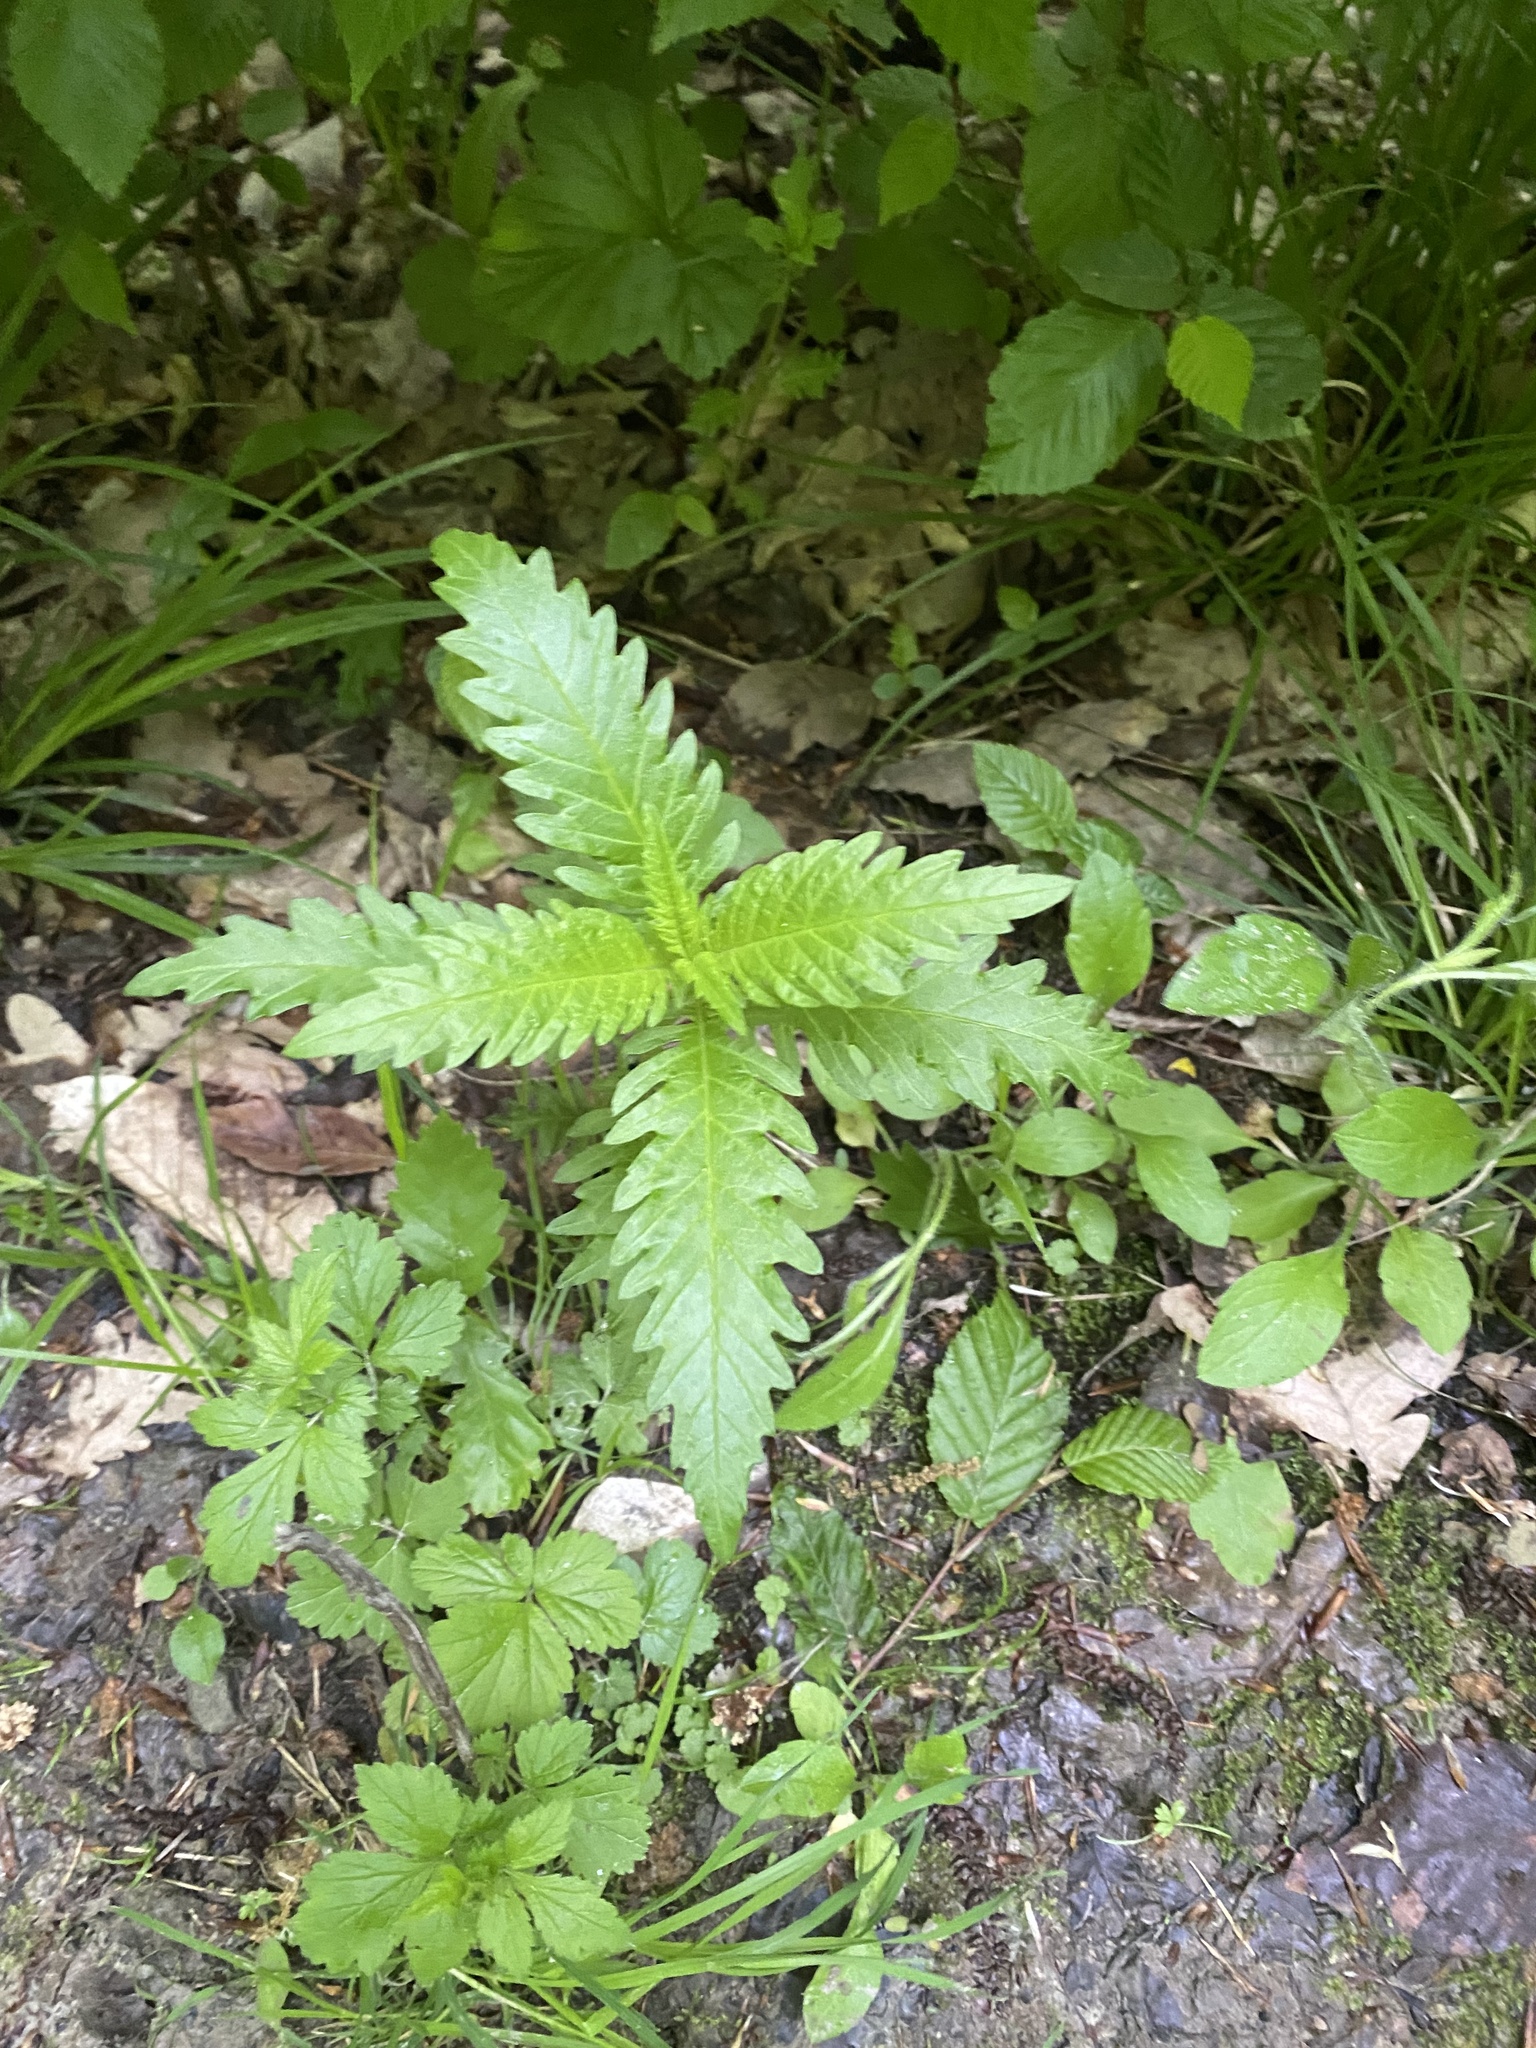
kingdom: Plantae
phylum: Tracheophyta
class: Magnoliopsida
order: Lamiales
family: Lamiaceae
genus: Lycopus
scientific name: Lycopus europaeus
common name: European bugleweed
